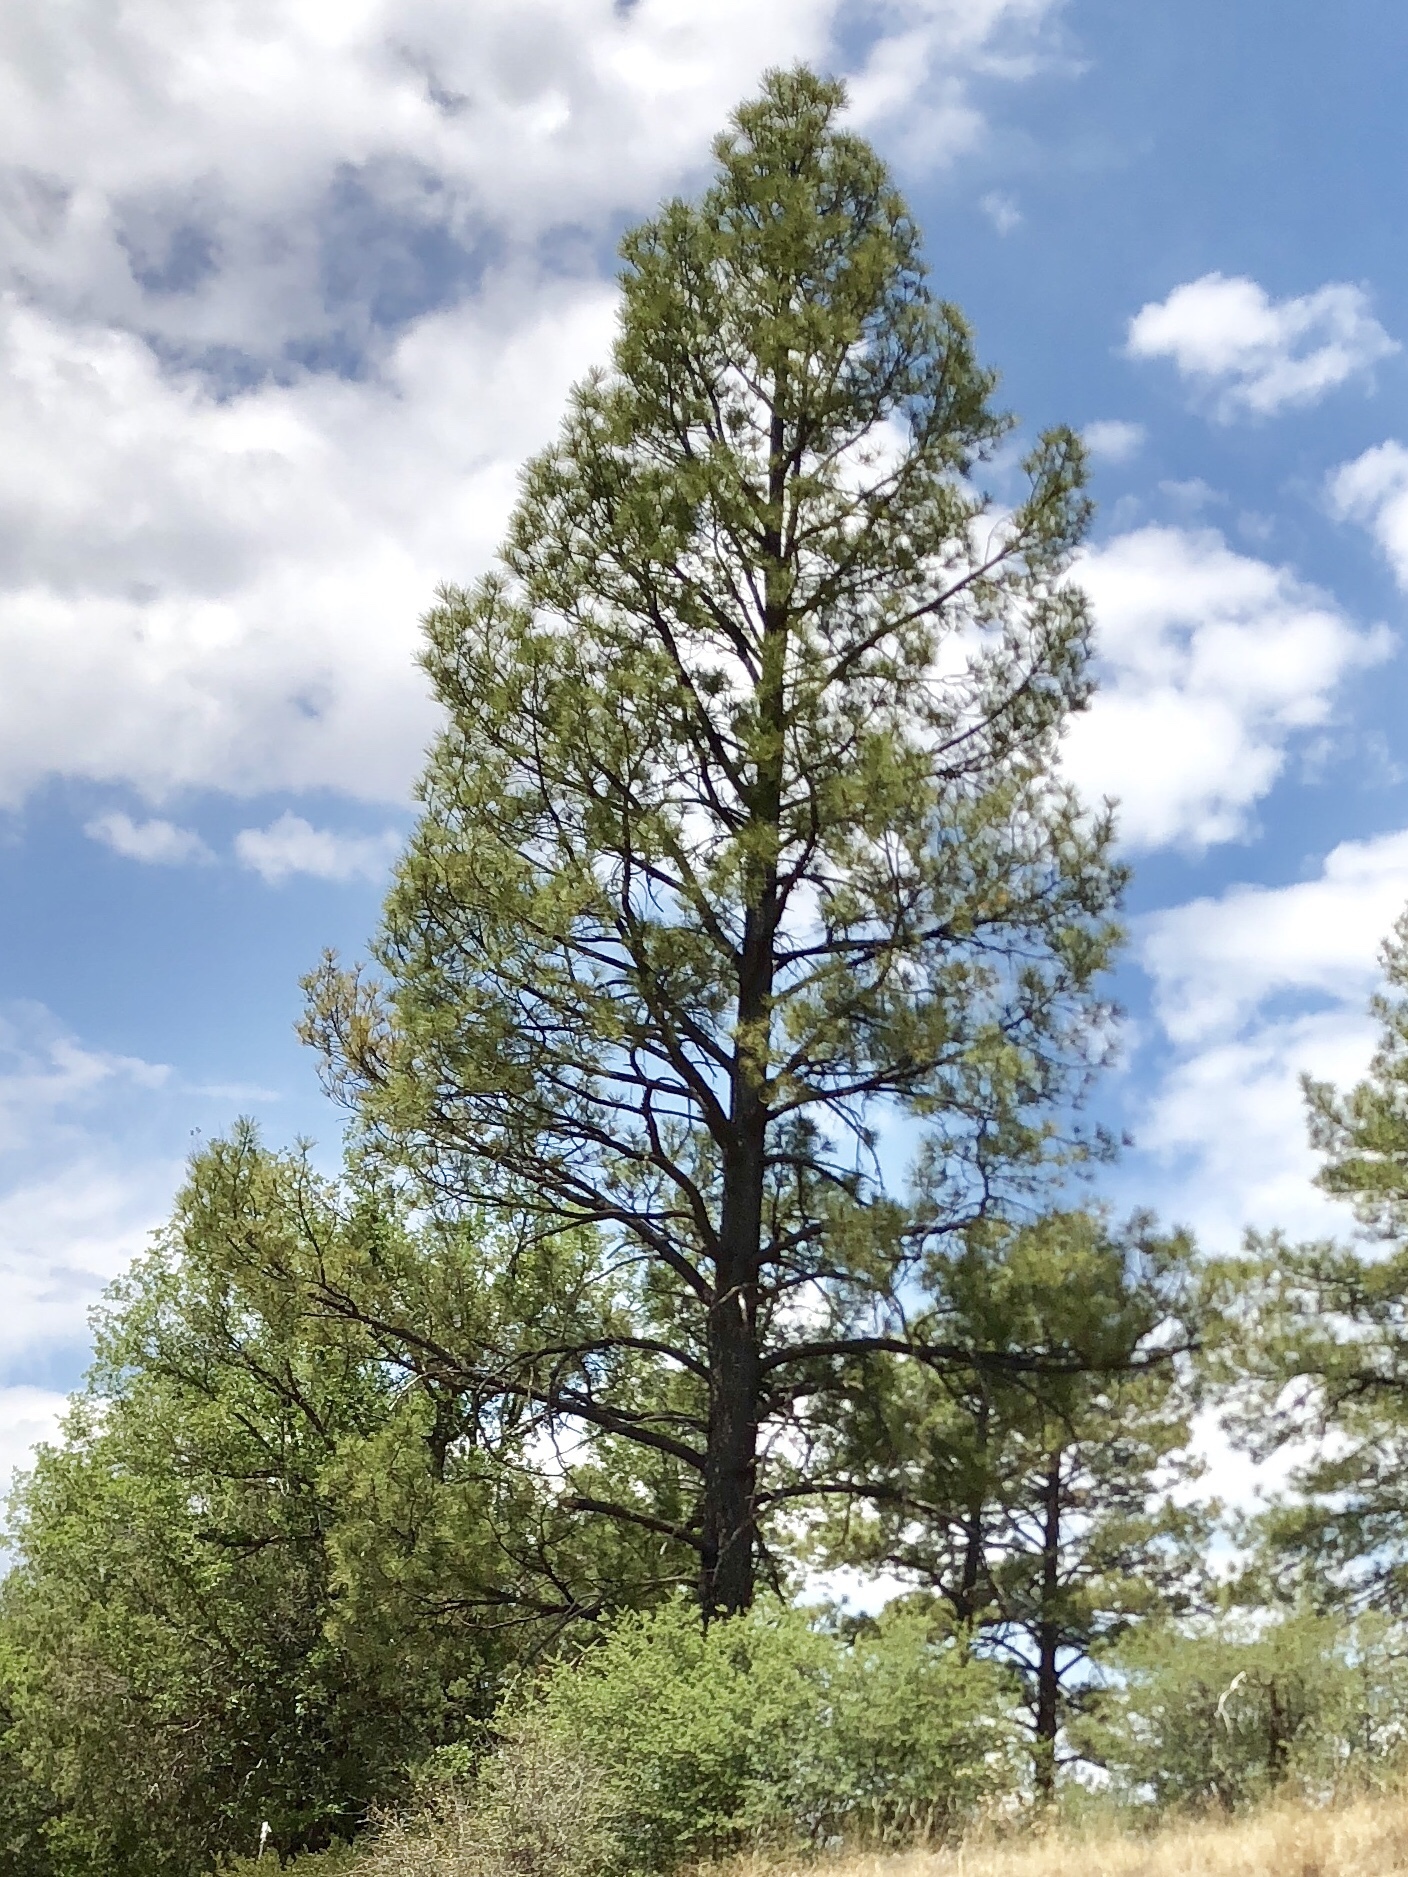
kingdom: Plantae
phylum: Tracheophyta
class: Pinopsida
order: Pinales
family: Pinaceae
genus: Pinus
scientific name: Pinus ponderosa
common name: Western yellow-pine
